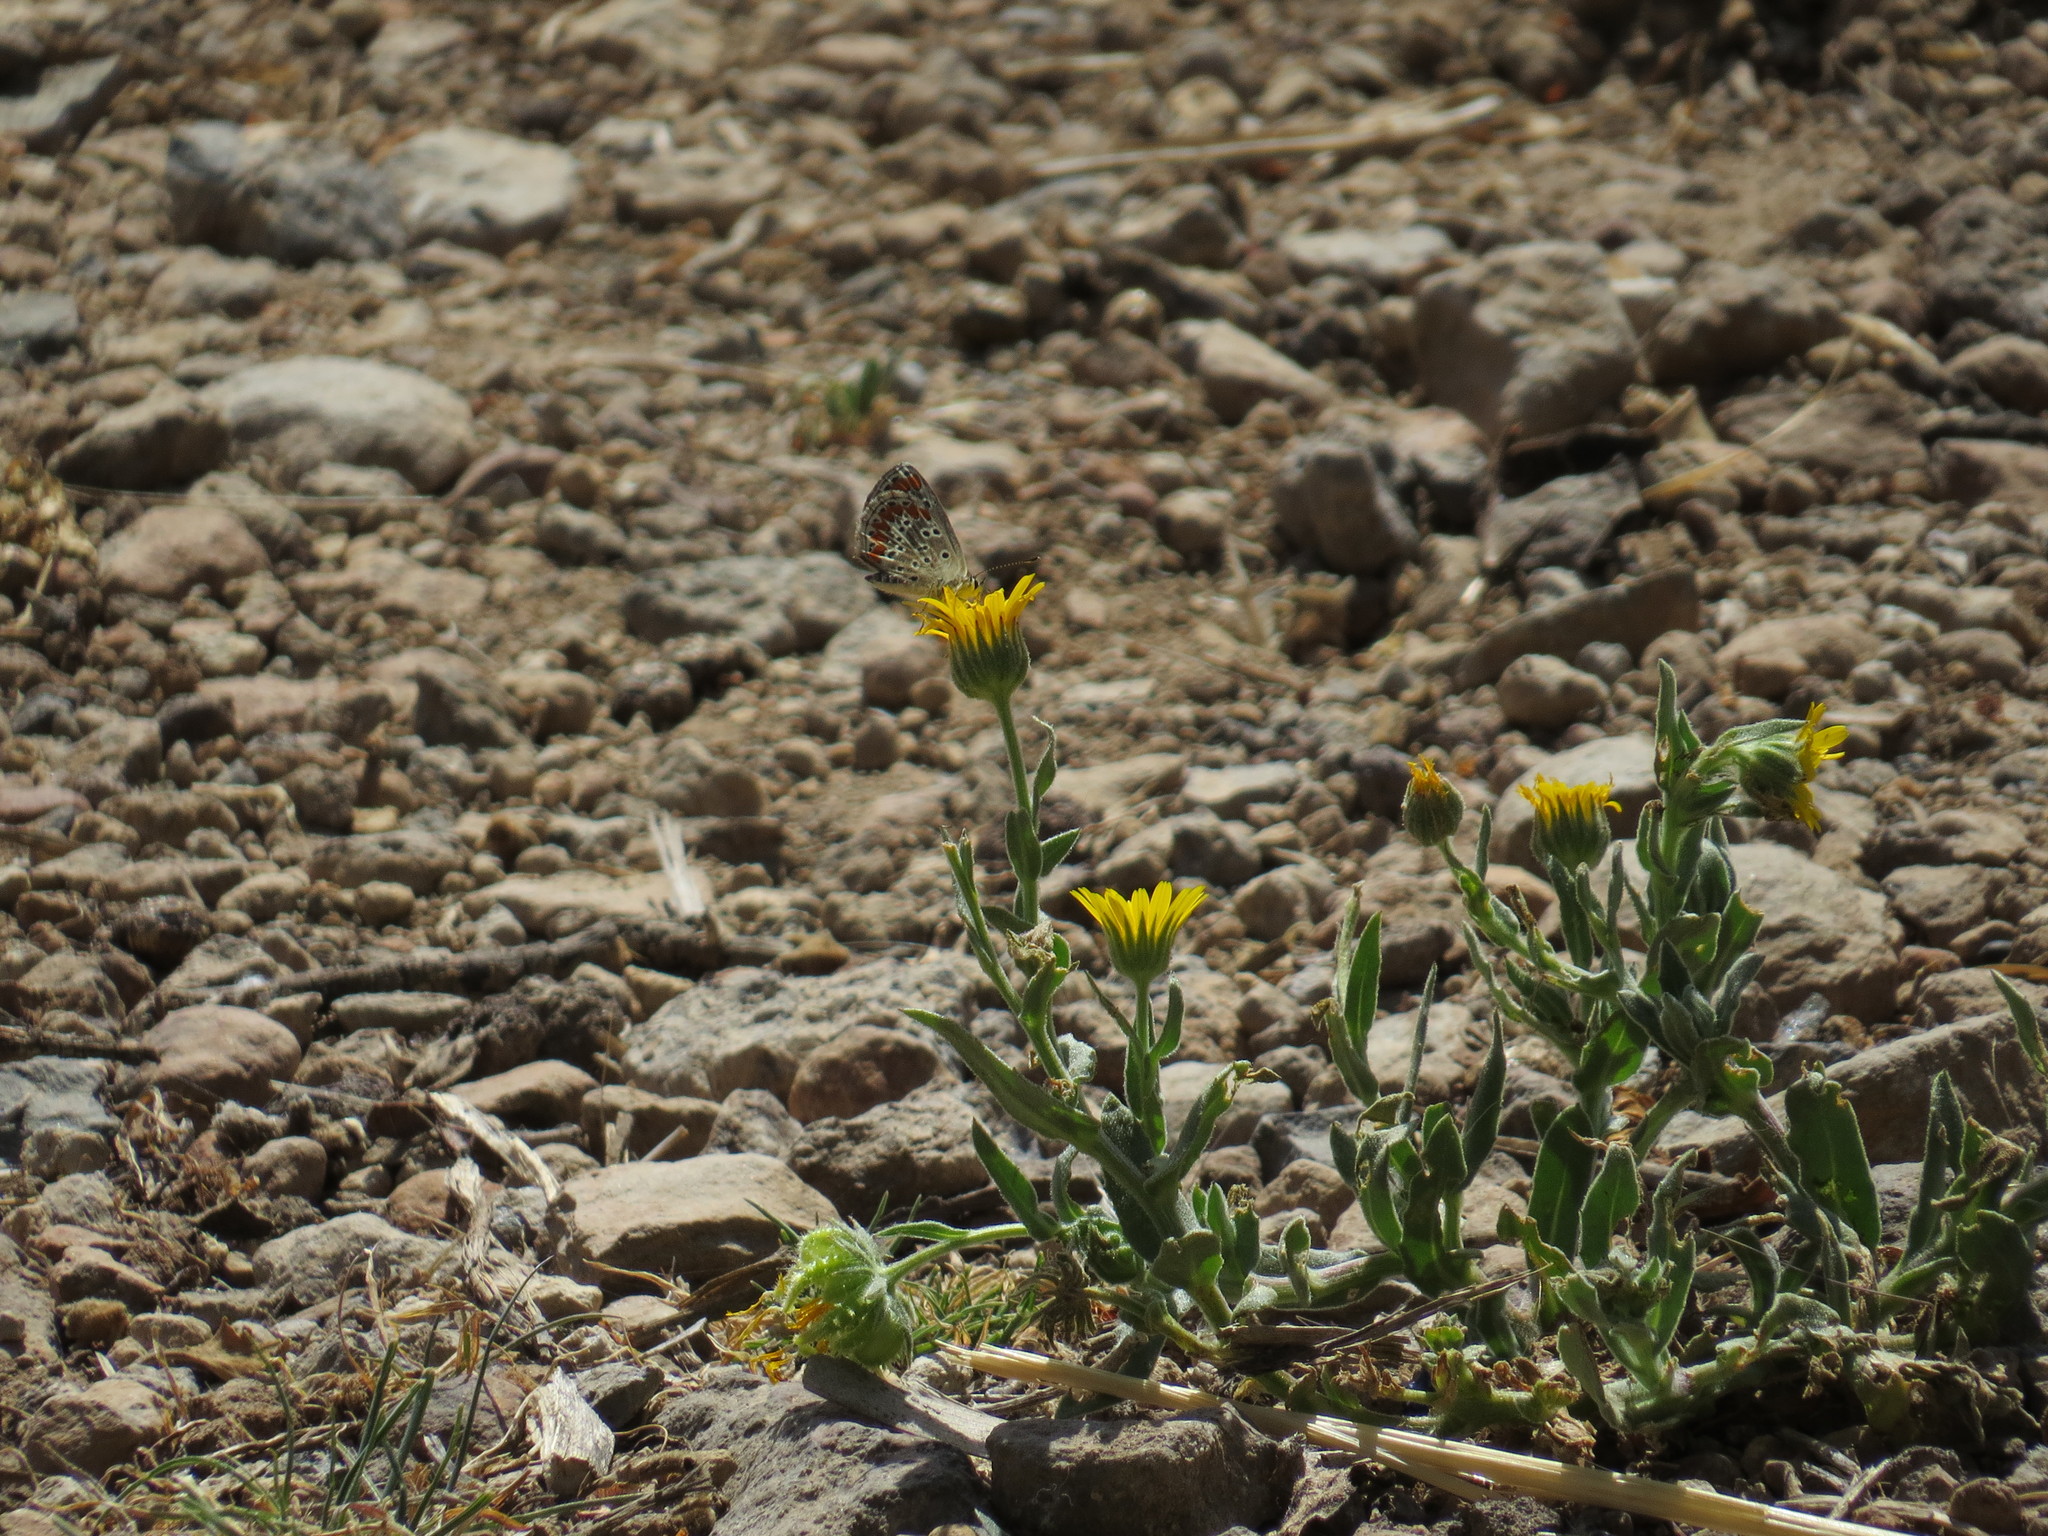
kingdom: Animalia
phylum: Arthropoda
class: Insecta
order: Lepidoptera
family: Lycaenidae
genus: Aricia
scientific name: Aricia cramera
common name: Eschscholtz´s brown  argus
